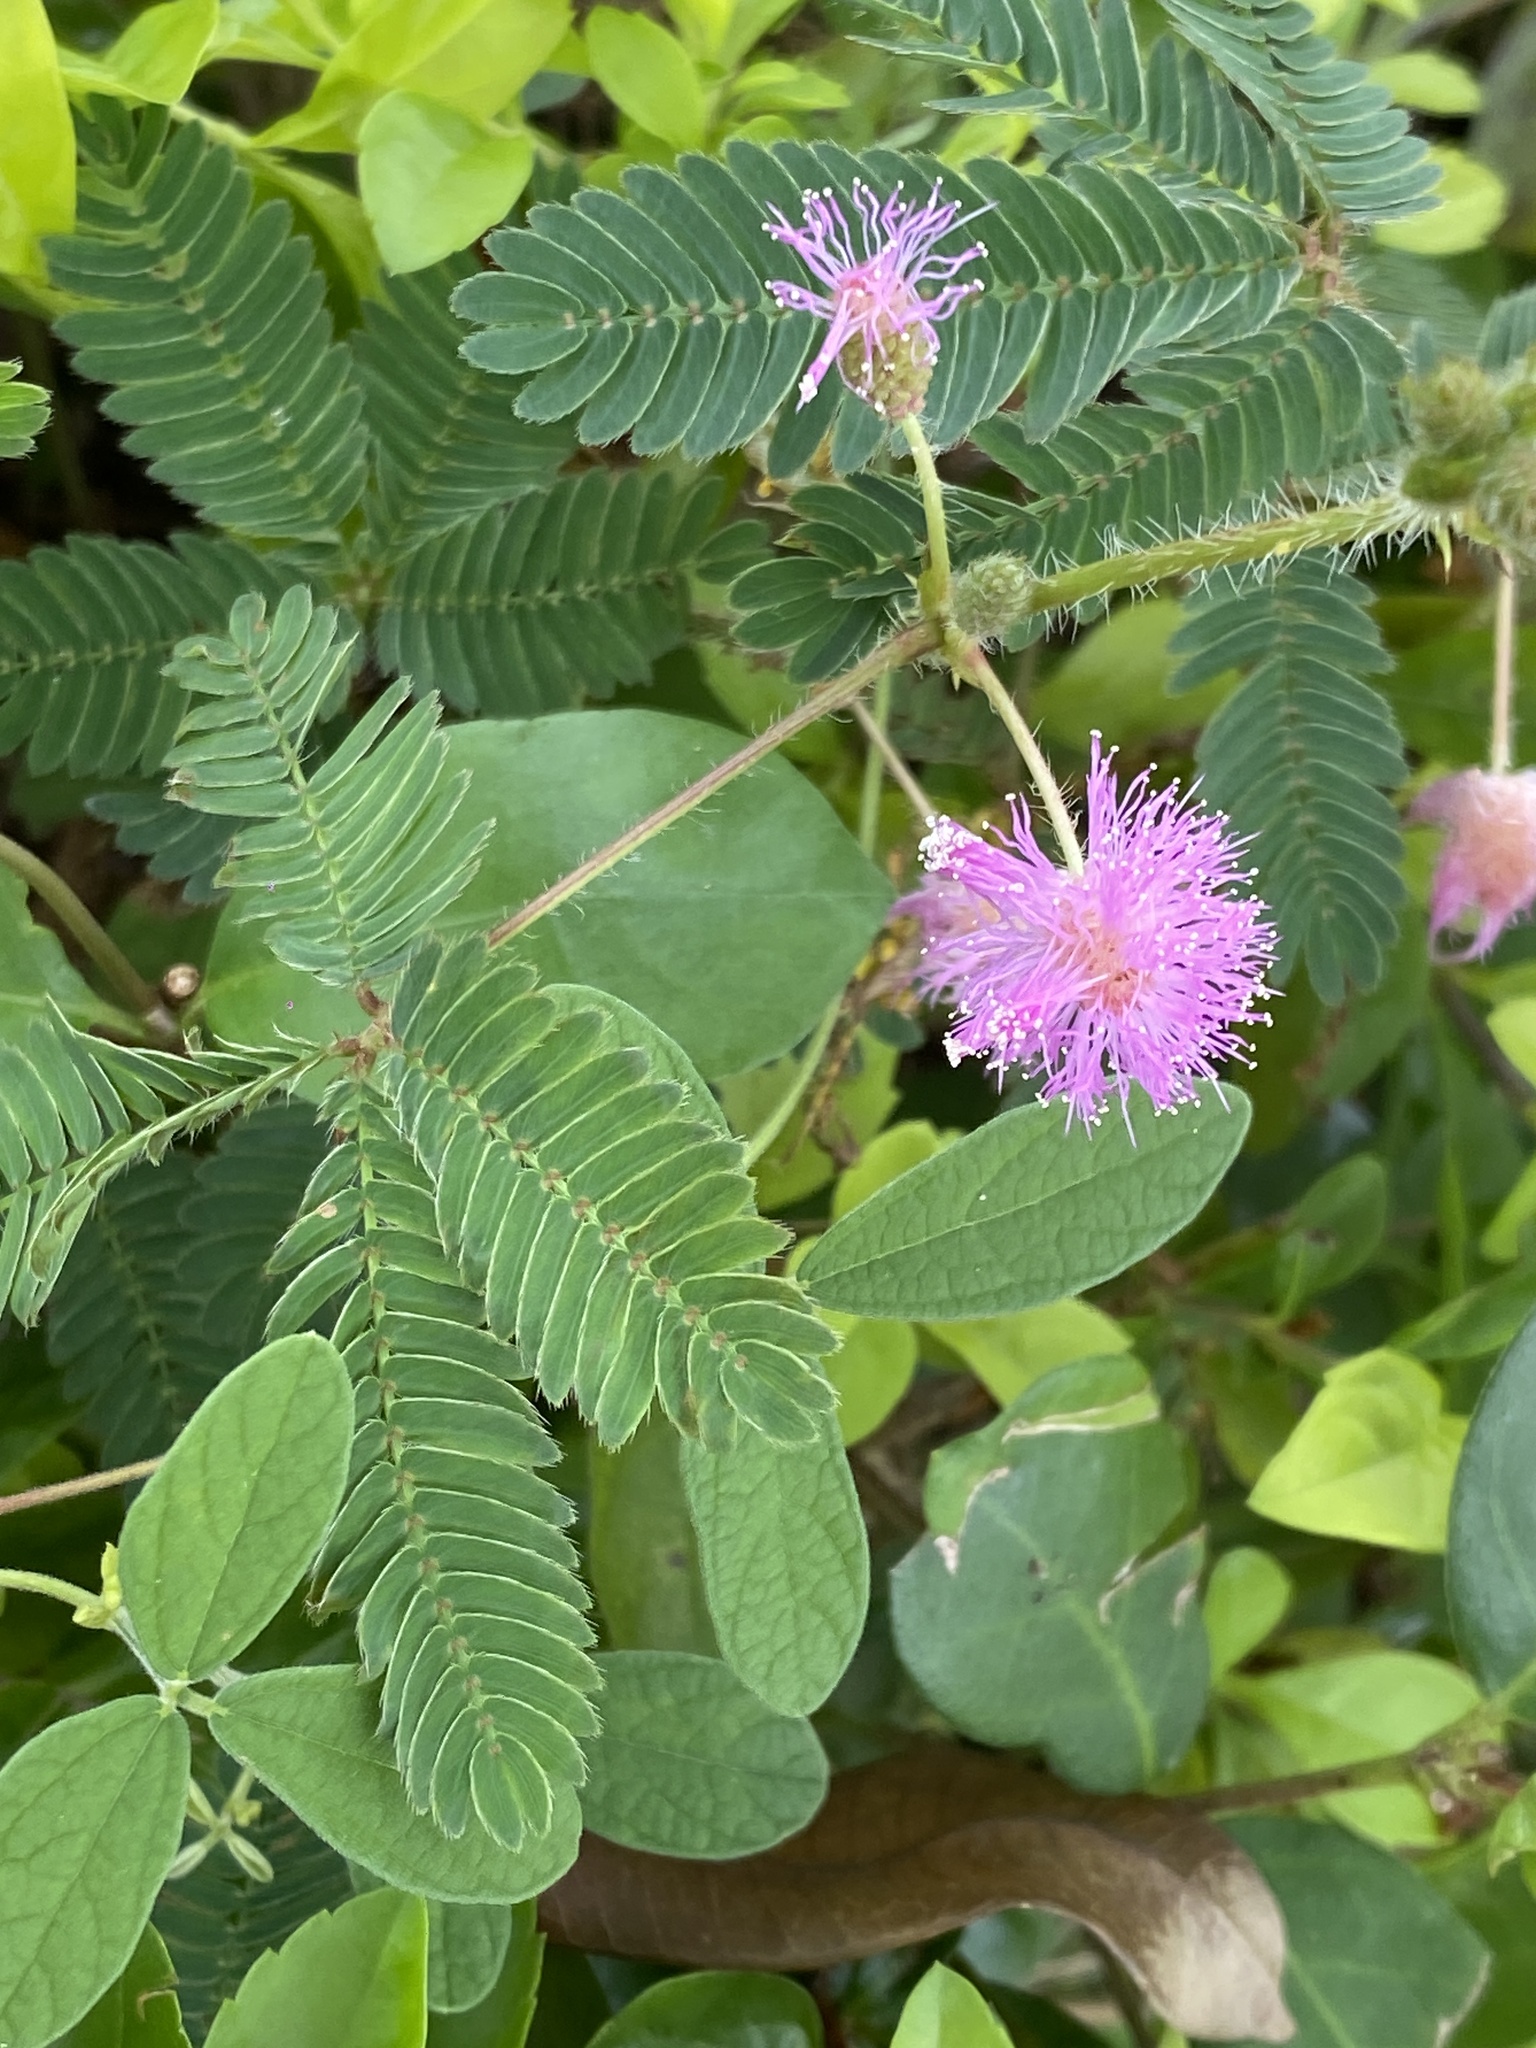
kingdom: Plantae
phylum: Tracheophyta
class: Magnoliopsida
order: Fabales
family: Fabaceae
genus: Mimosa
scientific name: Mimosa pudica
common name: Sensitive plant
